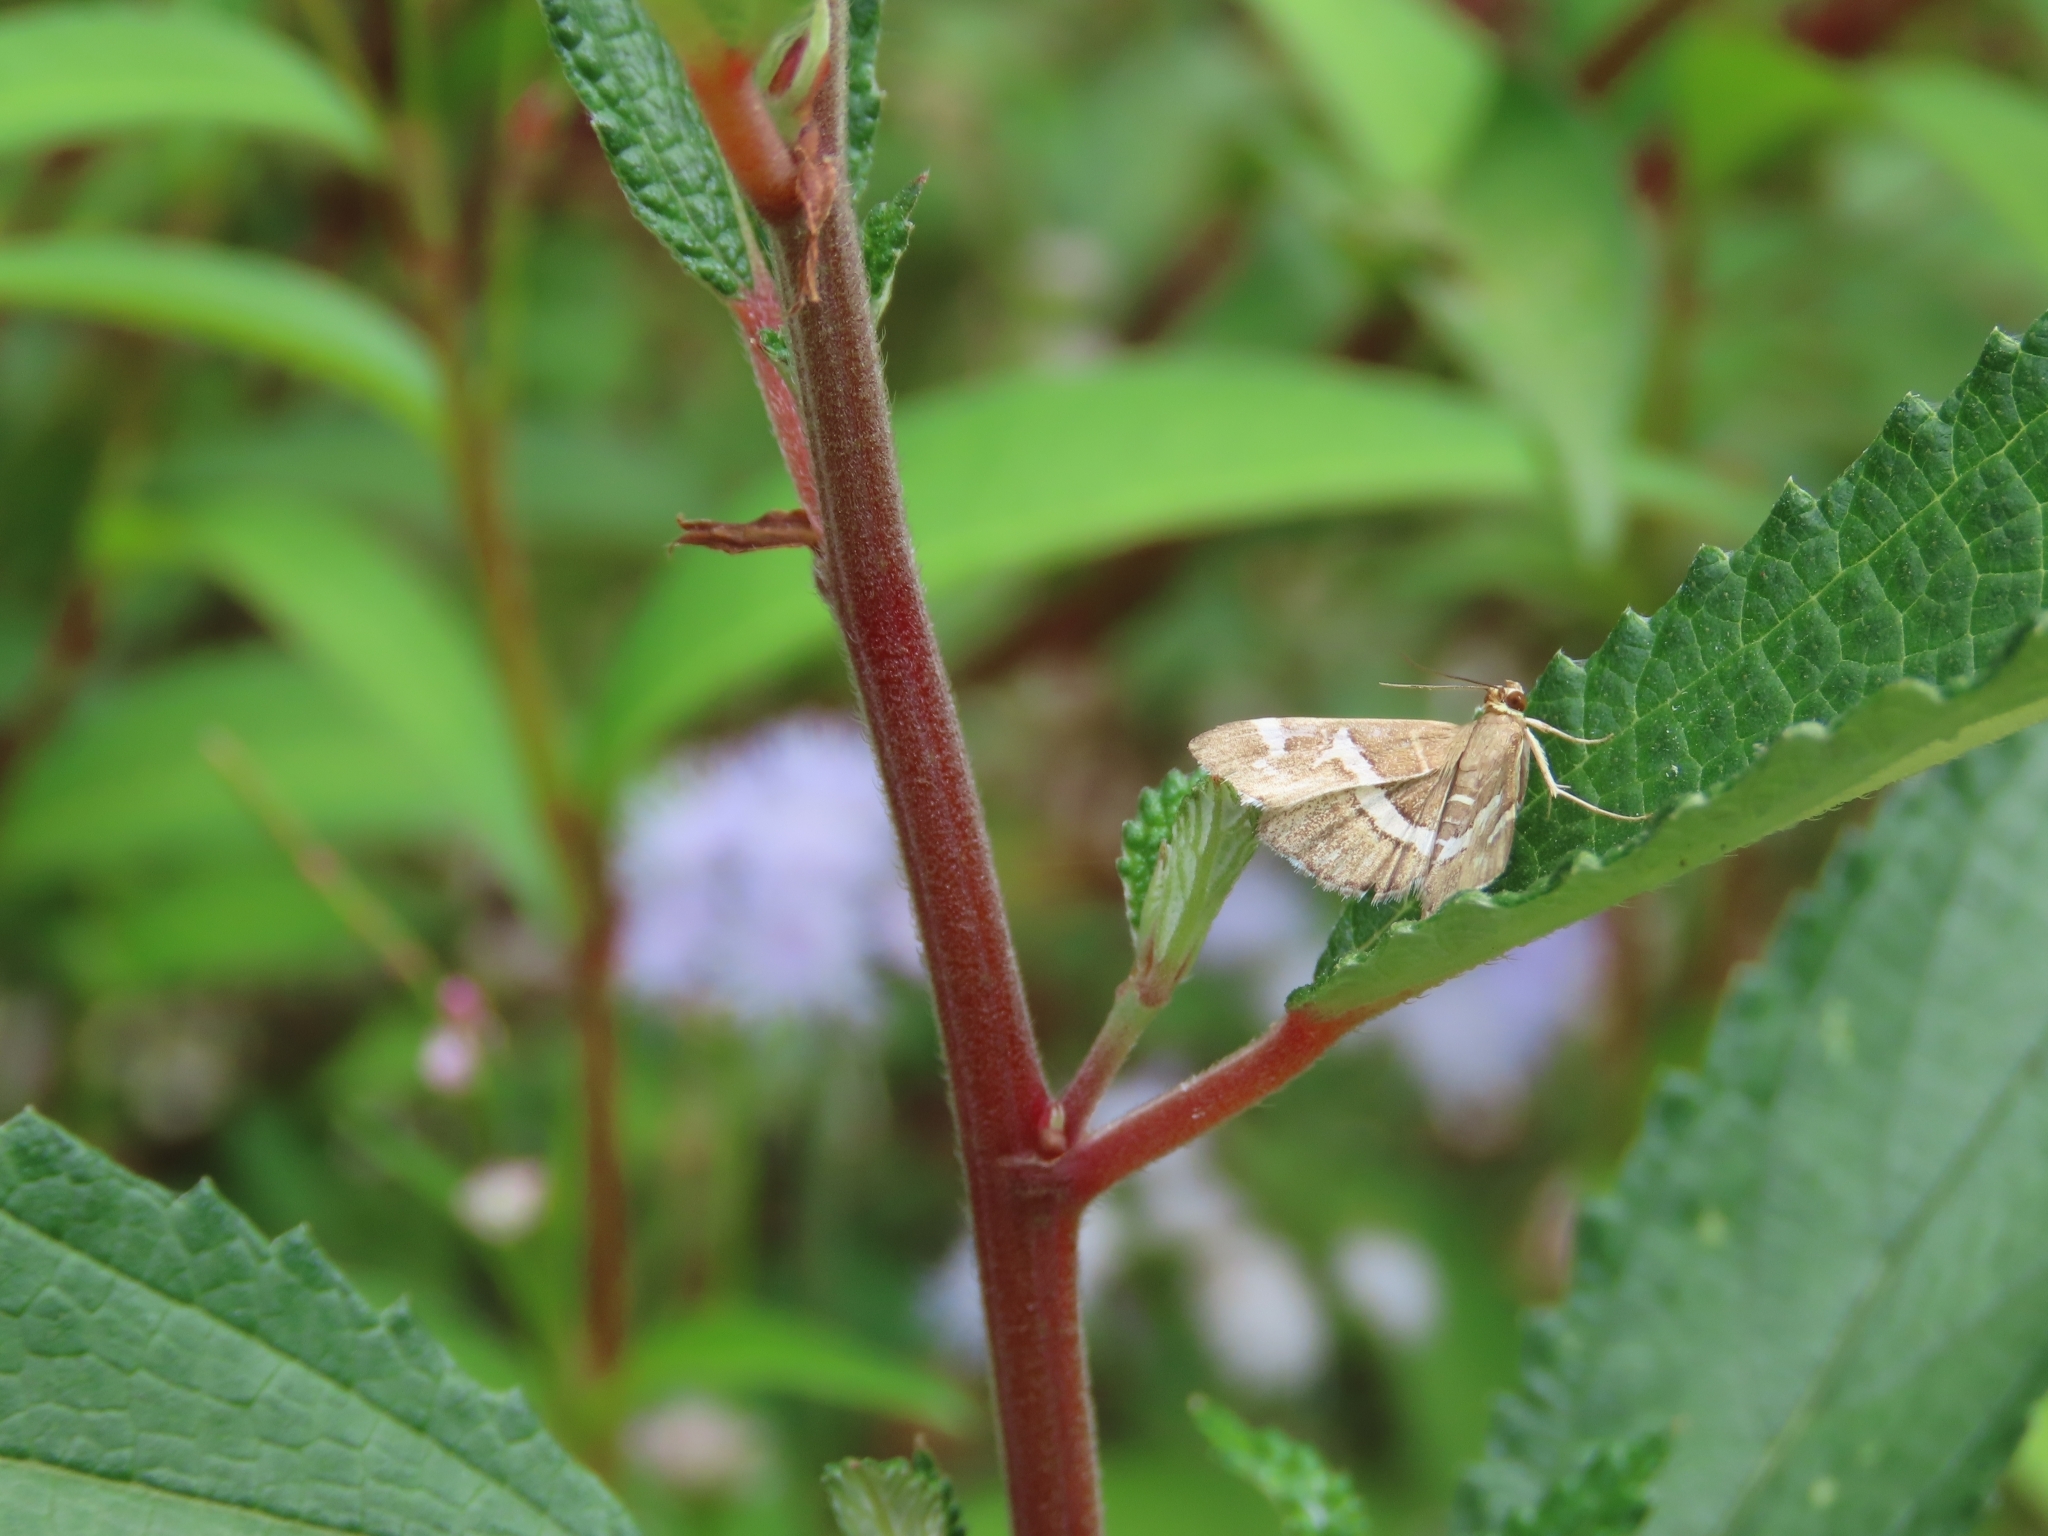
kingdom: Animalia
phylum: Arthropoda
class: Insecta
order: Lepidoptera
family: Crambidae
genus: Spoladea
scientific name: Spoladea recurvalis
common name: Beet webworm moth
